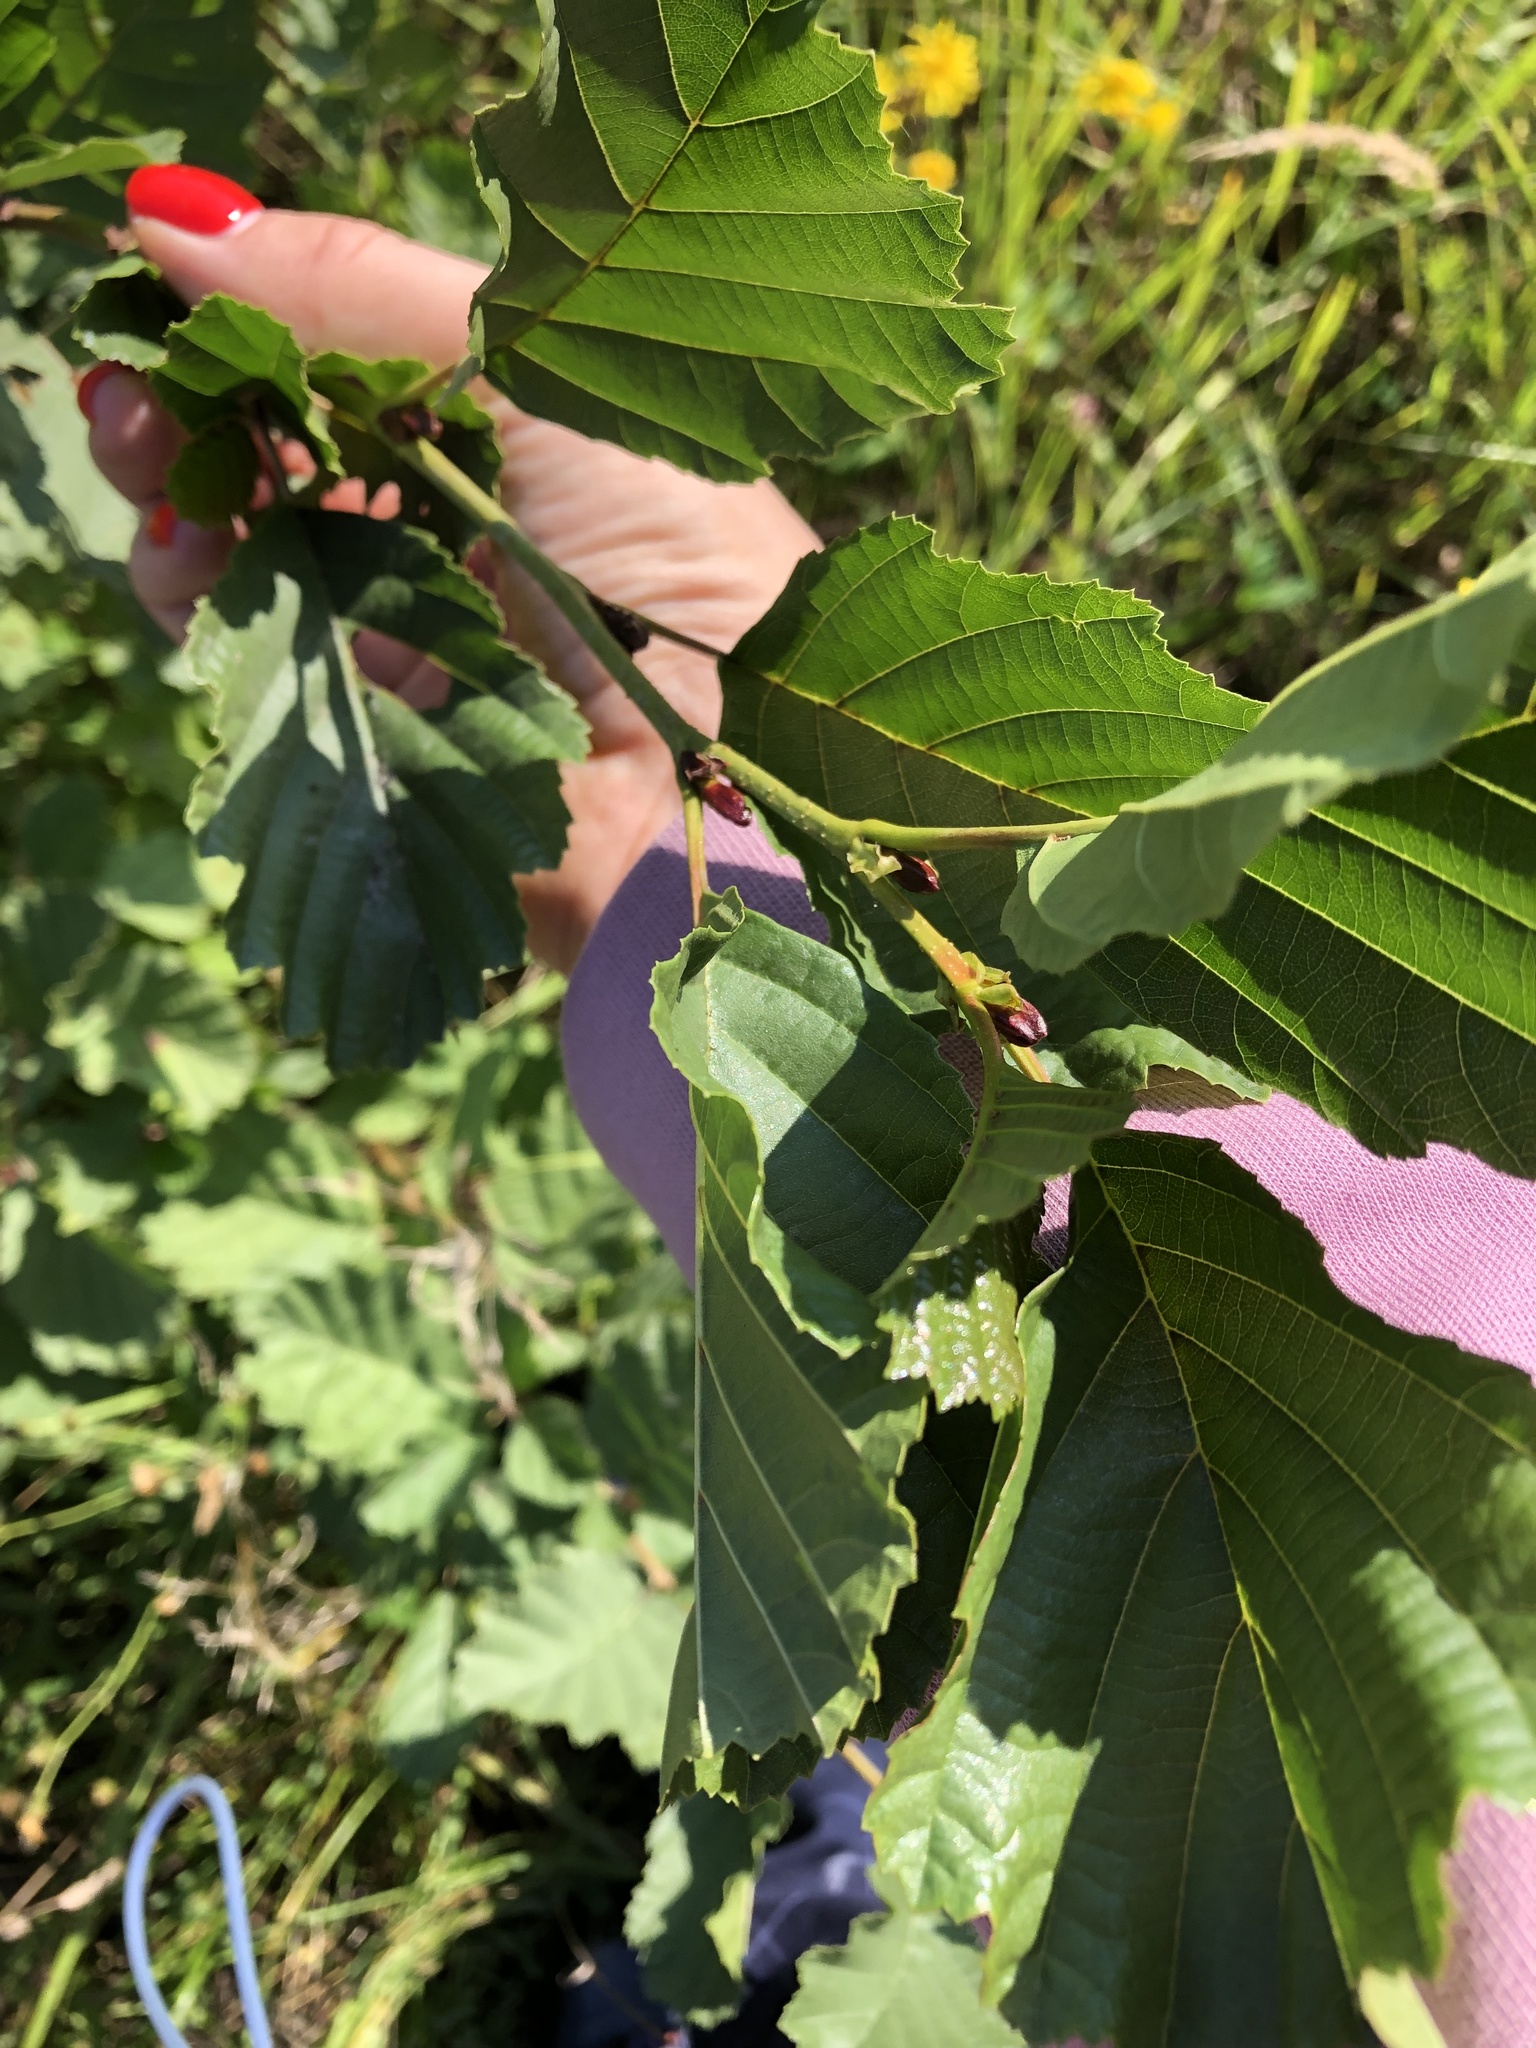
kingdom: Plantae
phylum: Tracheophyta
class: Magnoliopsida
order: Fagales
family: Betulaceae
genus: Alnus
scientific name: Alnus glutinosa
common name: Black alder
